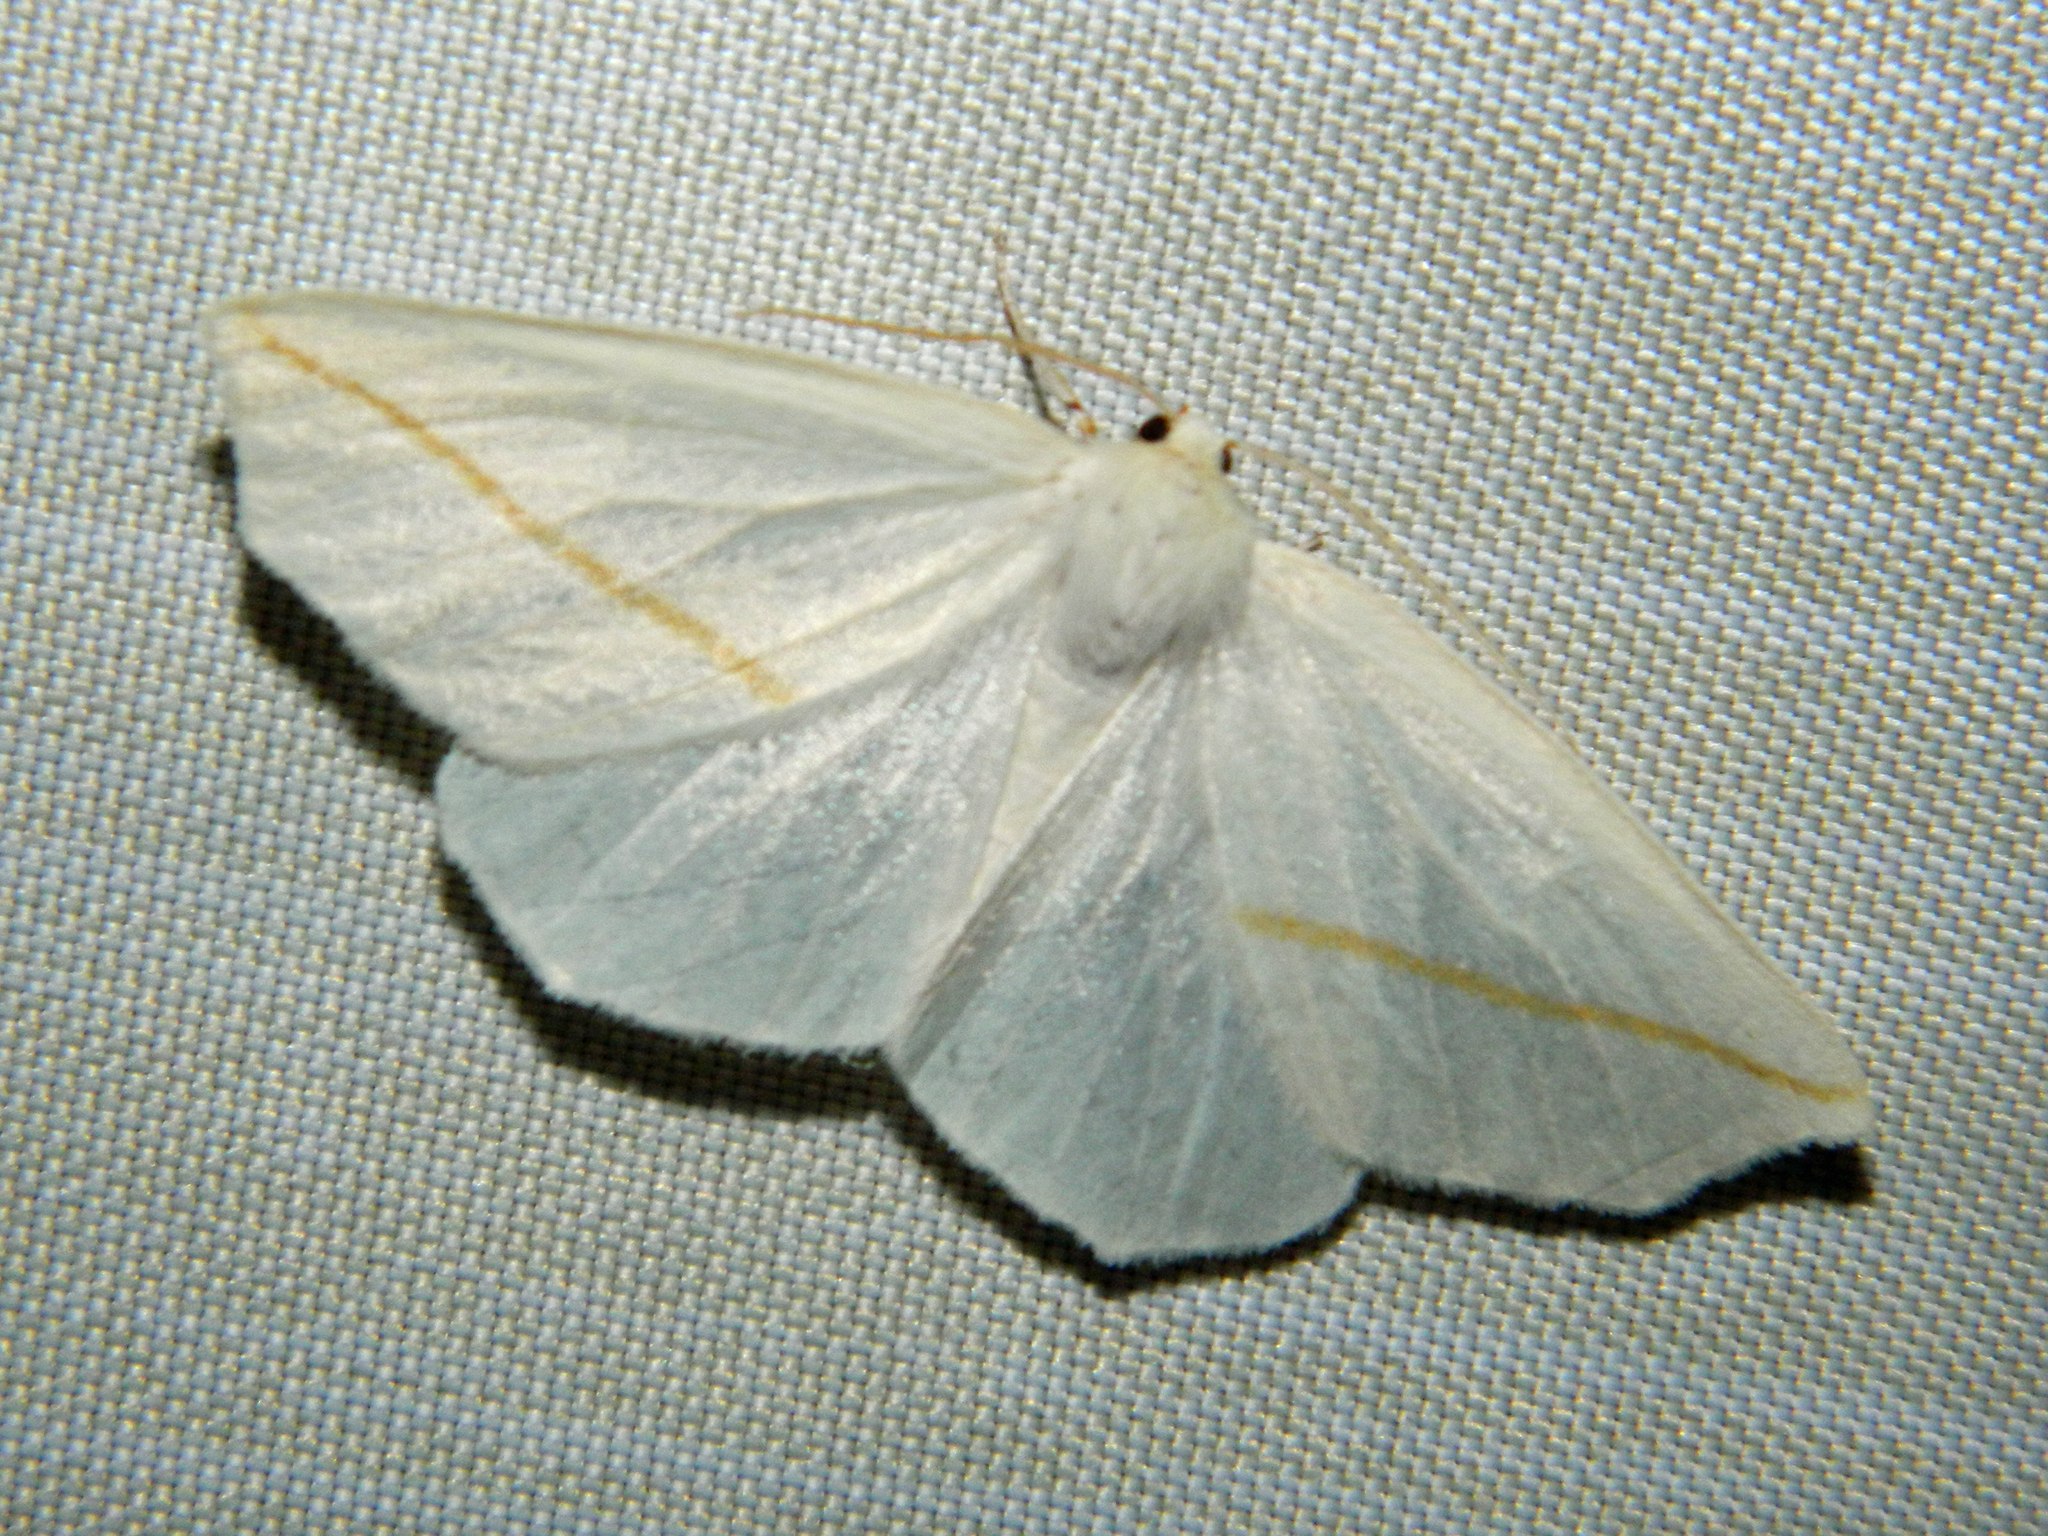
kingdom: Animalia
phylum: Arthropoda
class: Insecta
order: Lepidoptera
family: Geometridae
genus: Tetracis
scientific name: Tetracis cachexiata
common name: White slant-line
